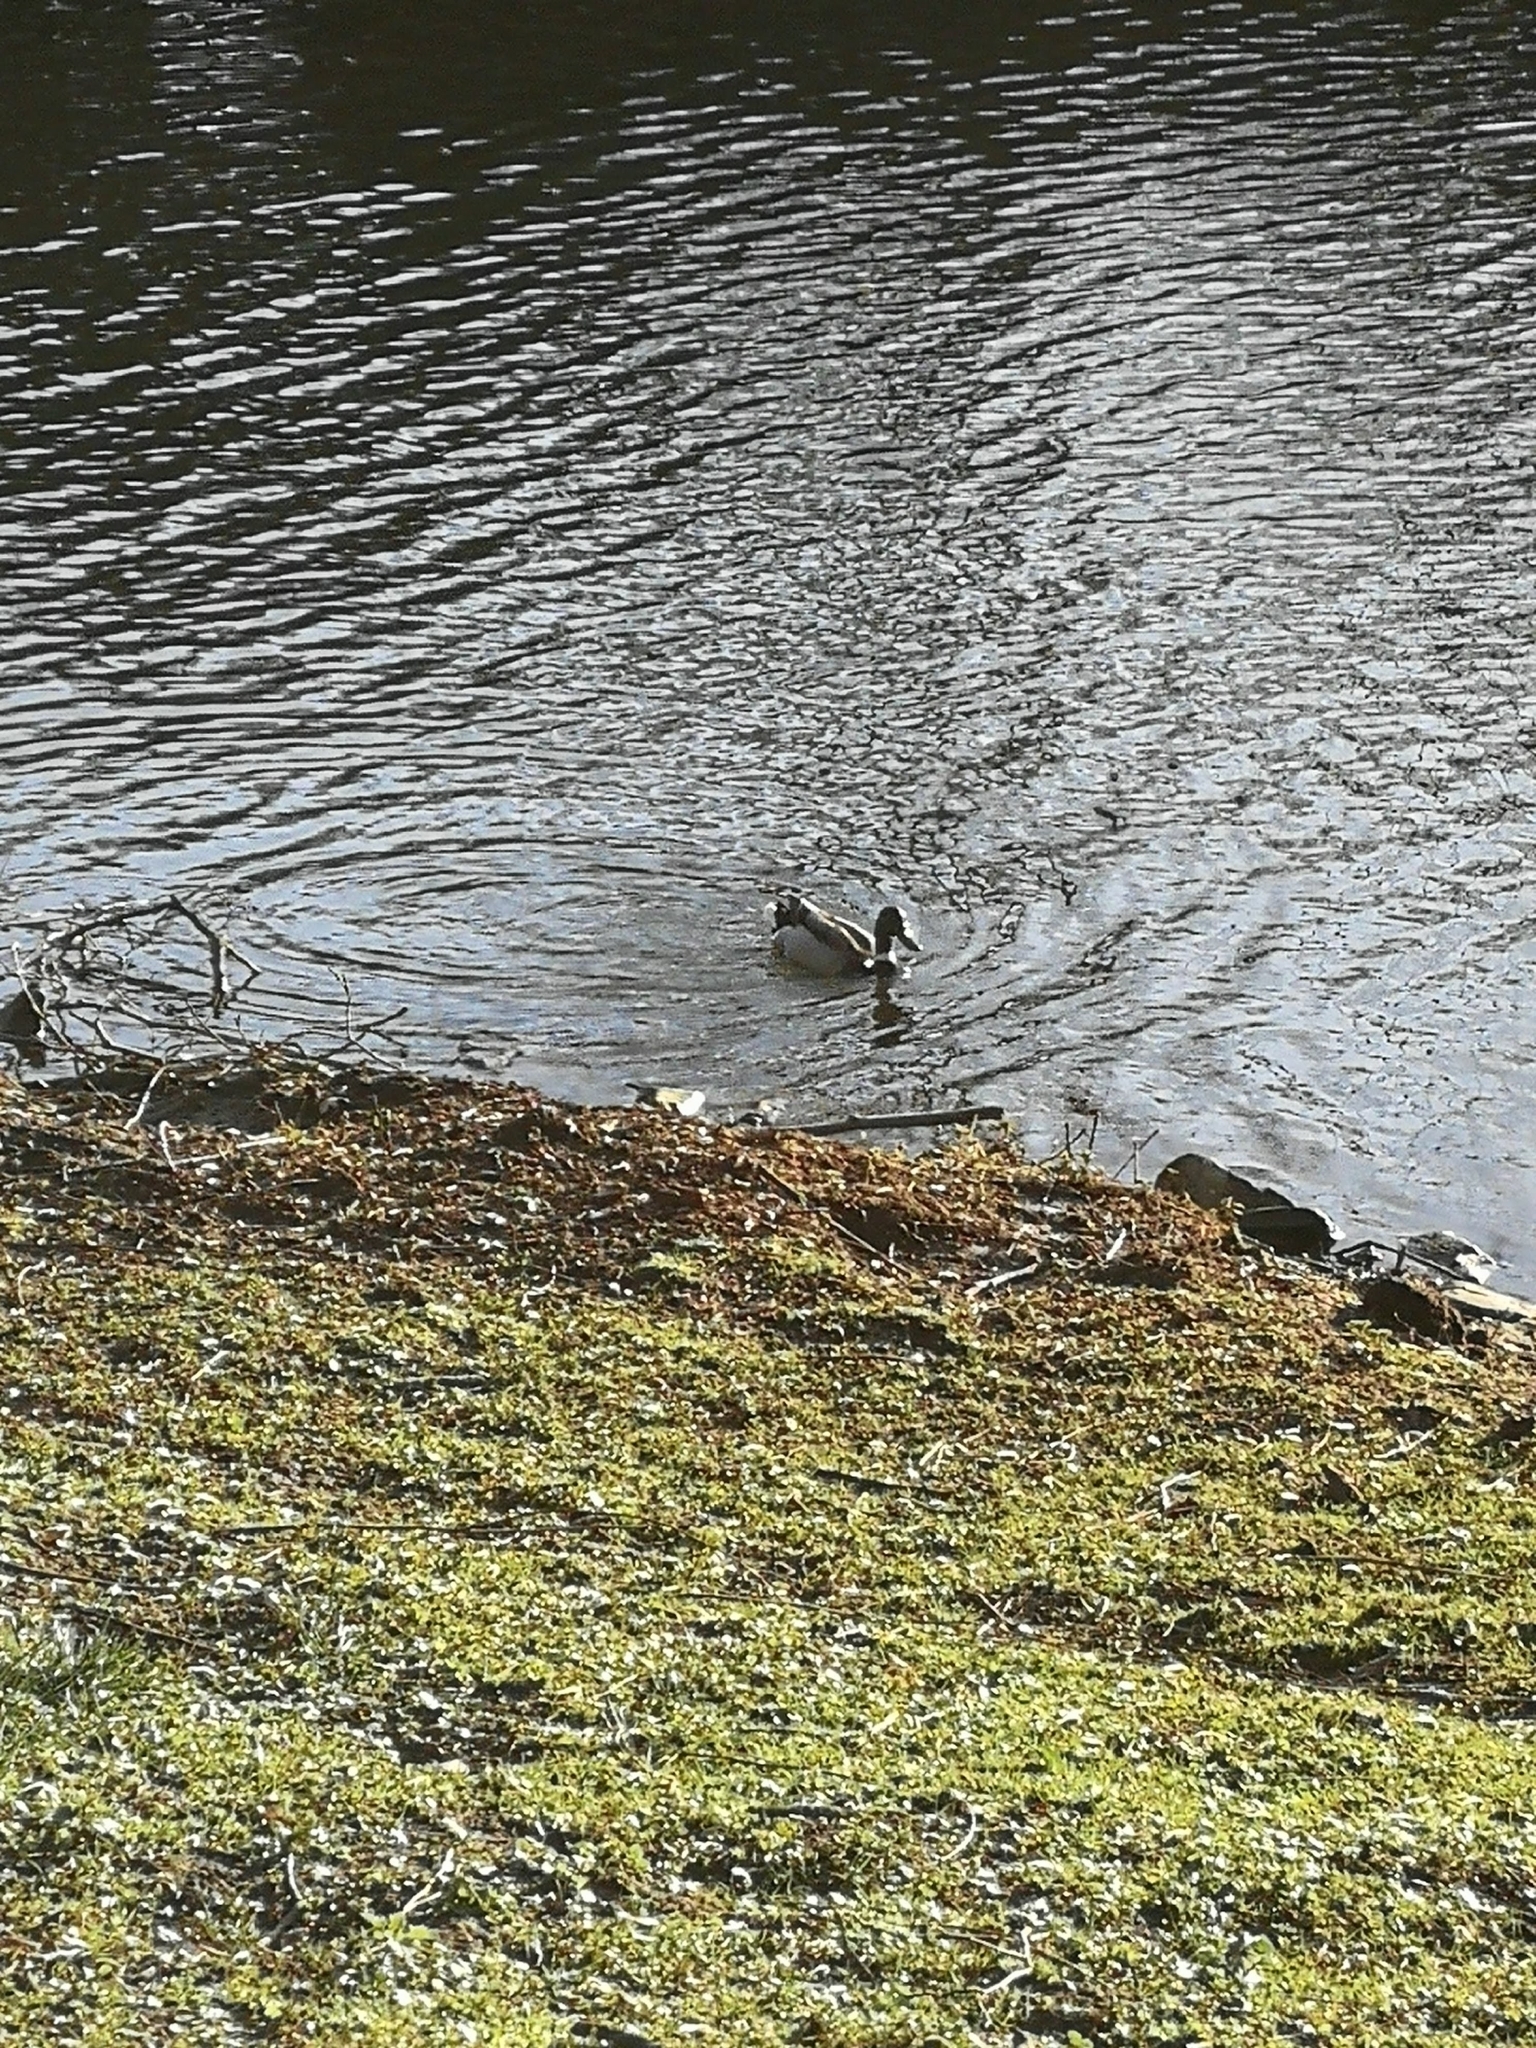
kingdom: Animalia
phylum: Chordata
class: Aves
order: Anseriformes
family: Anatidae
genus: Anas
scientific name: Anas platyrhynchos
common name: Mallard
